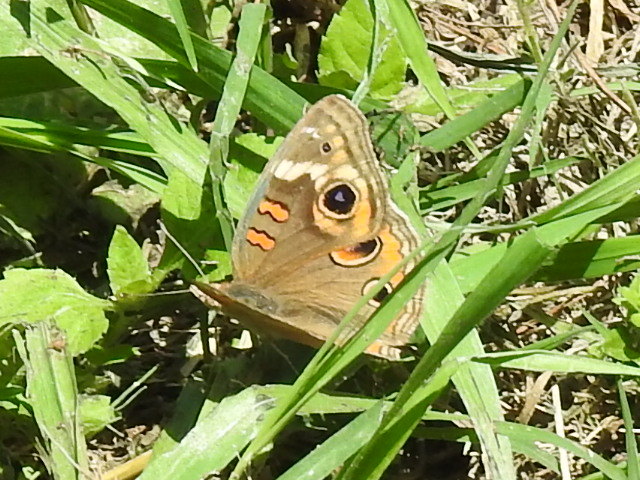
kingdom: Animalia
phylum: Arthropoda
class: Insecta
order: Lepidoptera
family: Nymphalidae
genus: Junonia
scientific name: Junonia coenia
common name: Common buckeye
